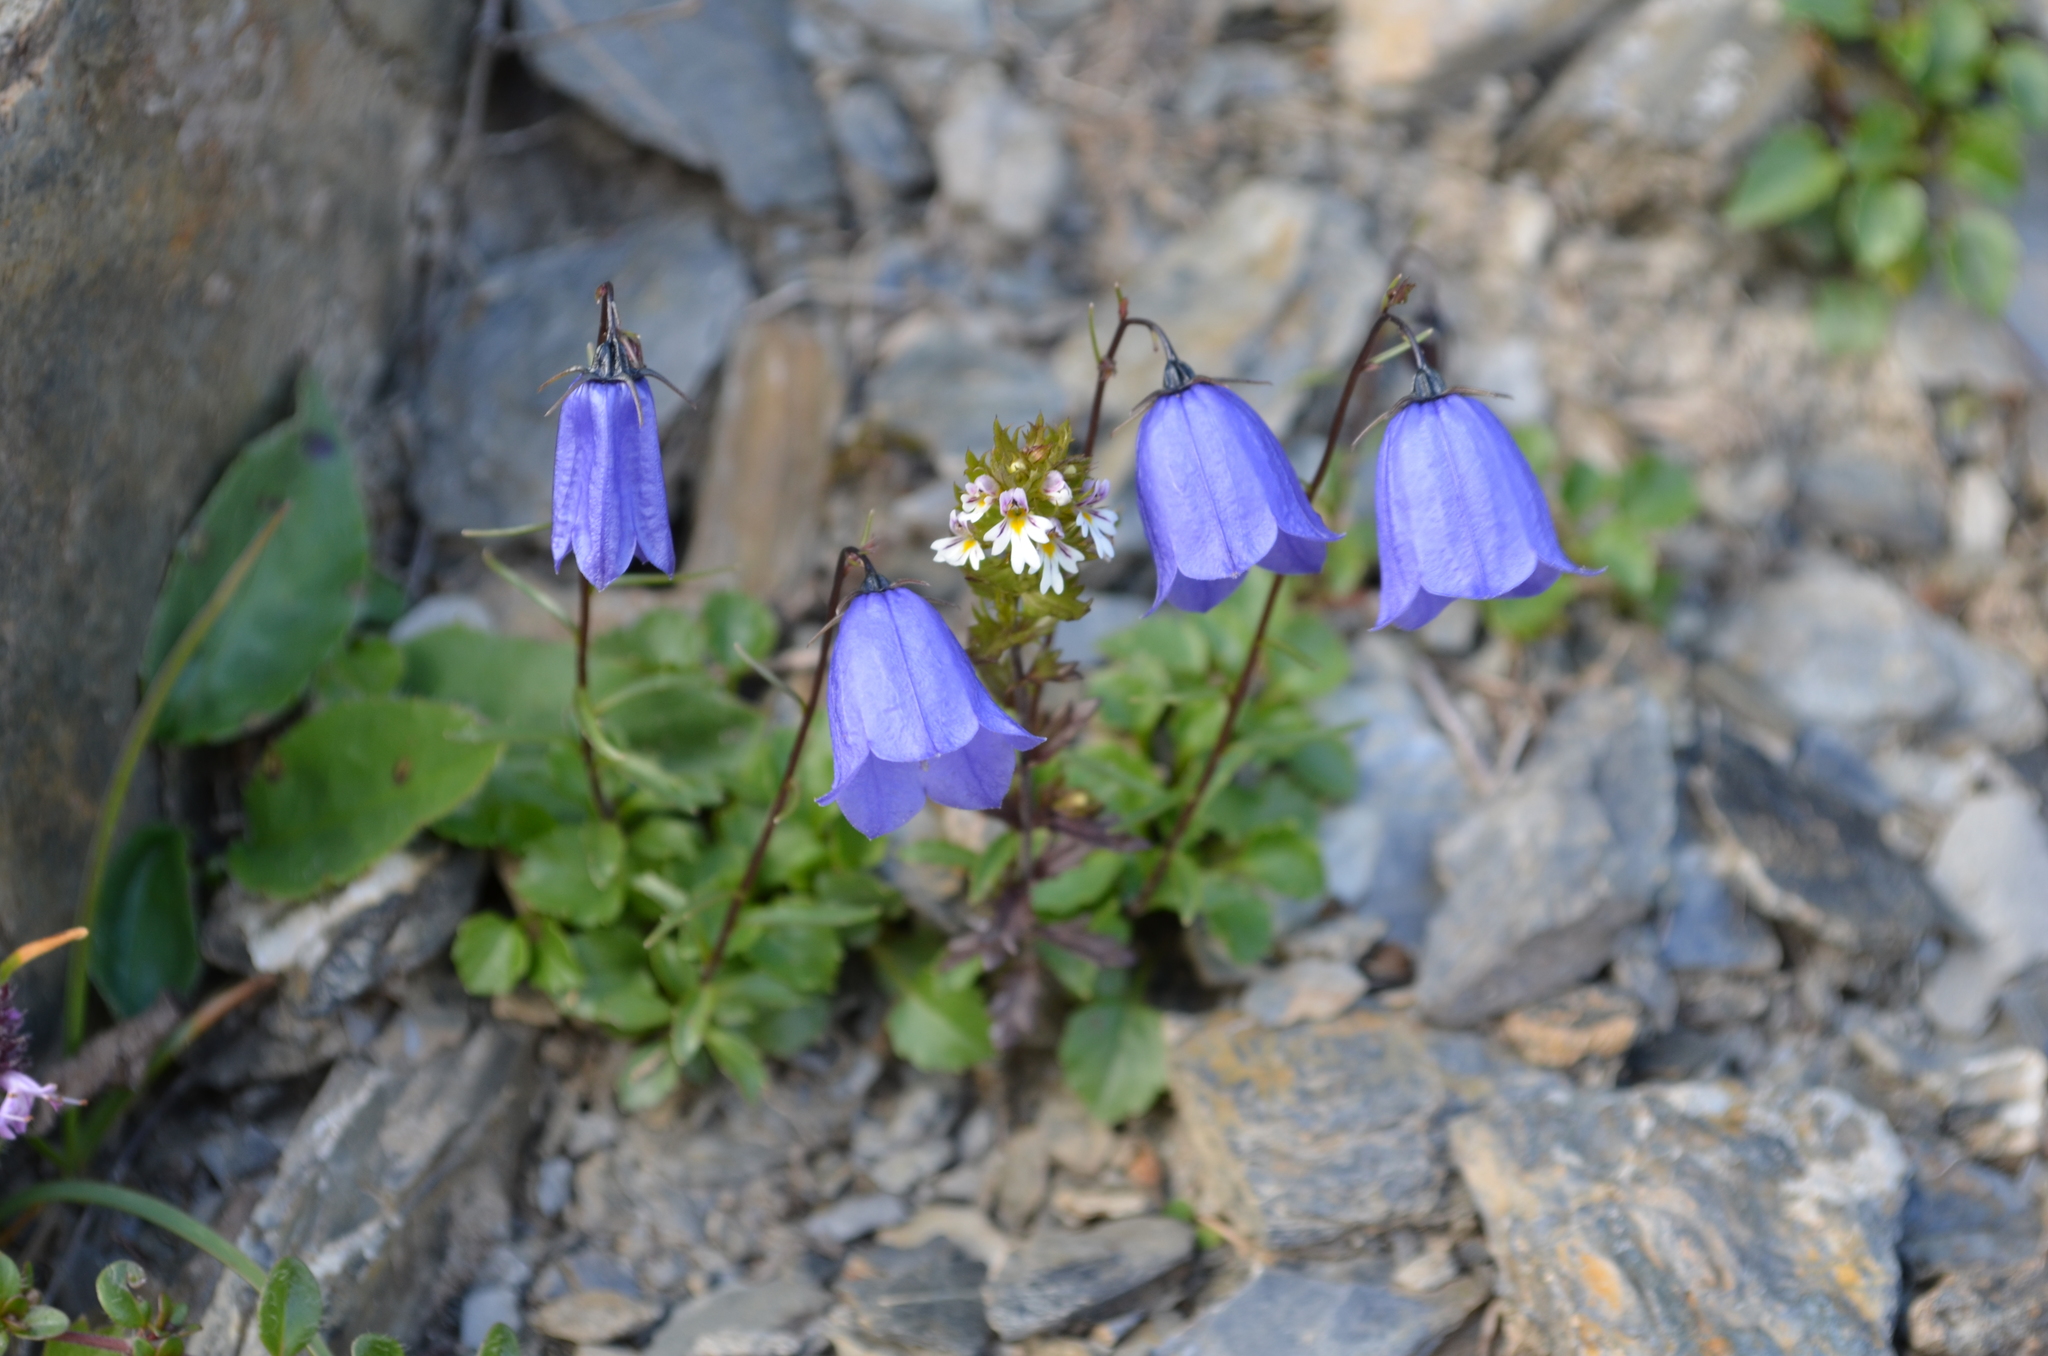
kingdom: Plantae
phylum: Tracheophyta
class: Magnoliopsida
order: Asterales
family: Campanulaceae
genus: Campanula
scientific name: Campanula cochleariifolia
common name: Fairies'-thimbles
